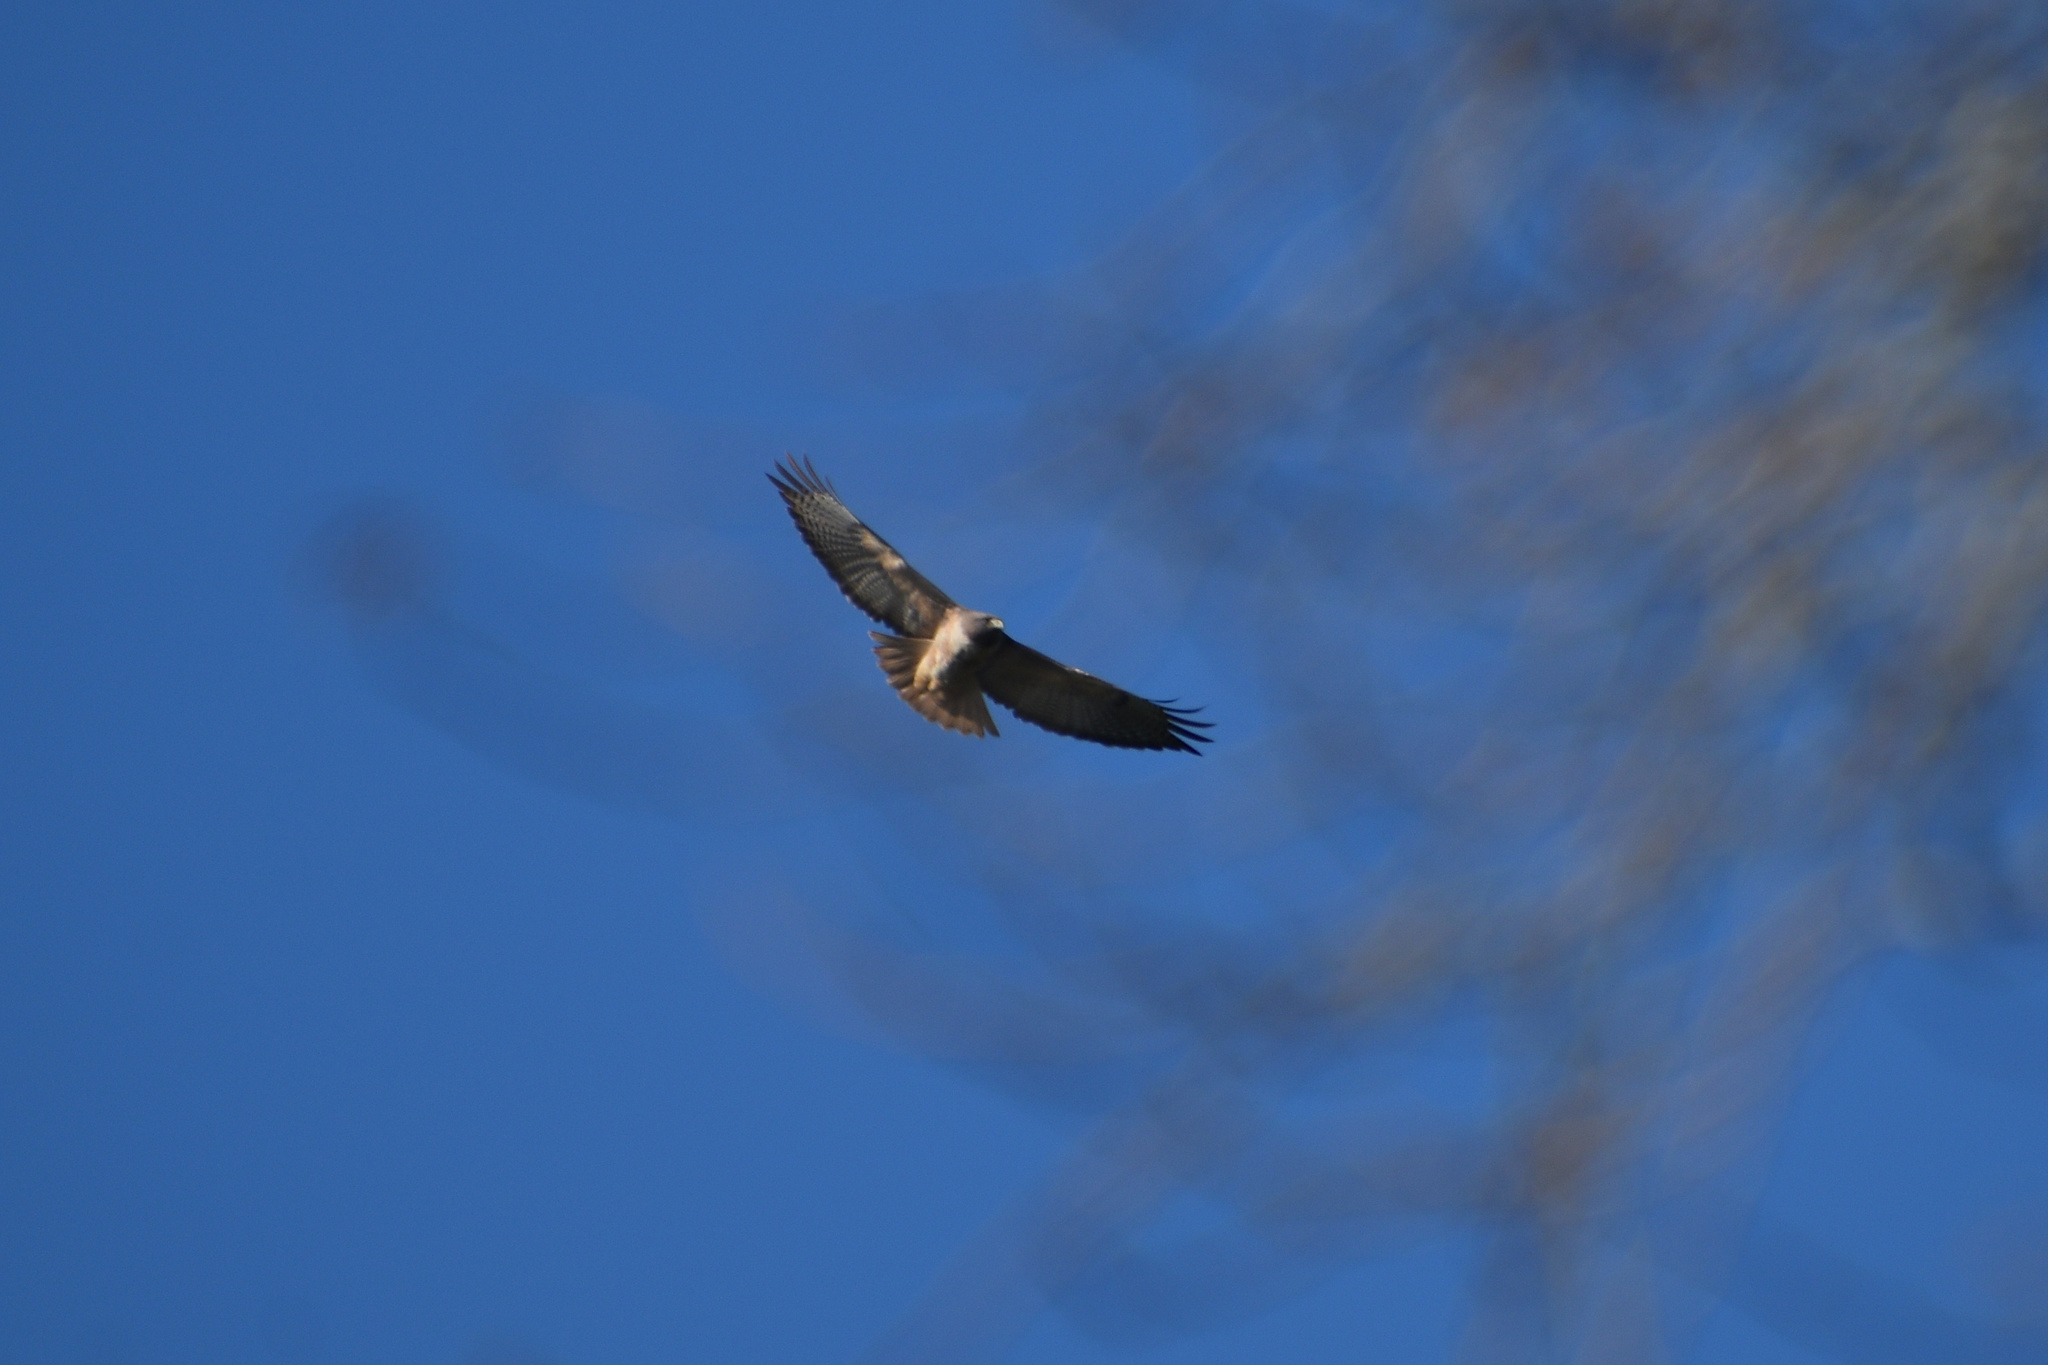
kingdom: Animalia
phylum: Chordata
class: Aves
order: Accipitriformes
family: Accipitridae
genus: Buteo
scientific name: Buteo jamaicensis
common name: Red-tailed hawk
